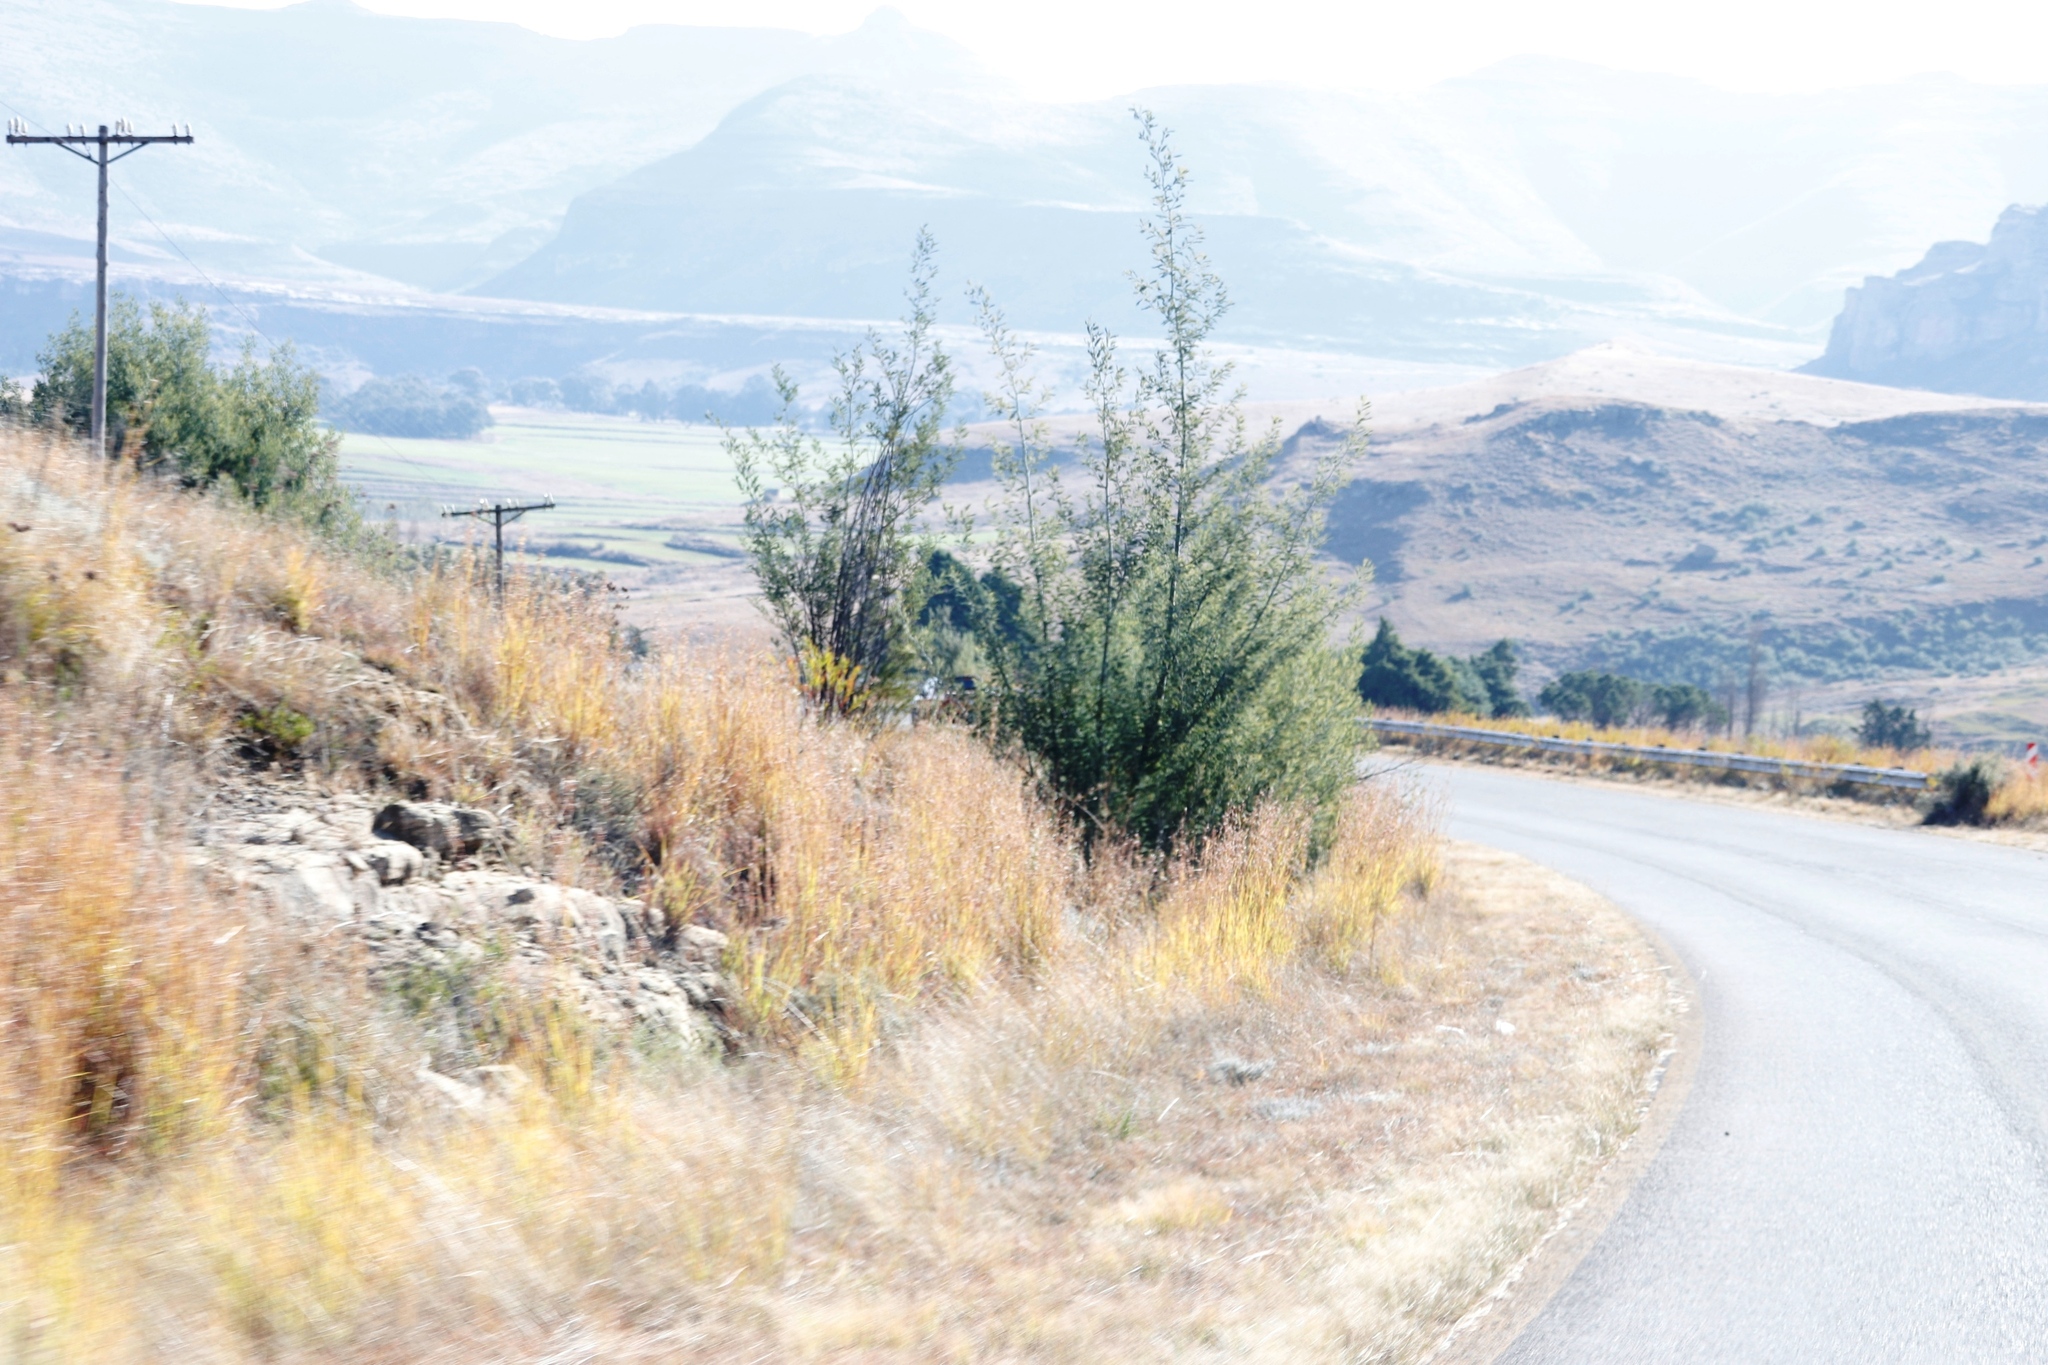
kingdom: Plantae
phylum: Tracheophyta
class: Liliopsida
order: Poales
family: Poaceae
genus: Hyparrhenia
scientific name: Hyparrhenia hirta
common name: Thatching grass
